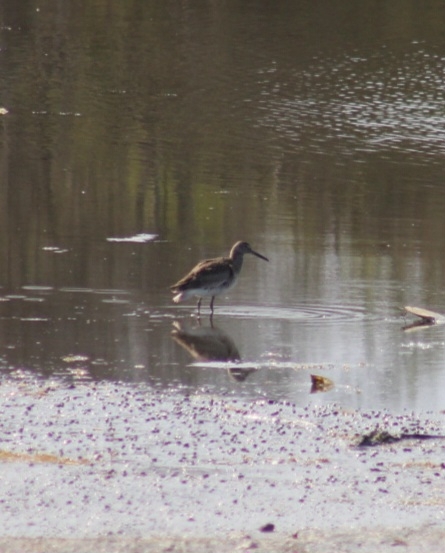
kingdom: Animalia
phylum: Chordata
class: Aves
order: Charadriiformes
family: Scolopacidae
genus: Tringa
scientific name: Tringa semipalmata
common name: Willet
